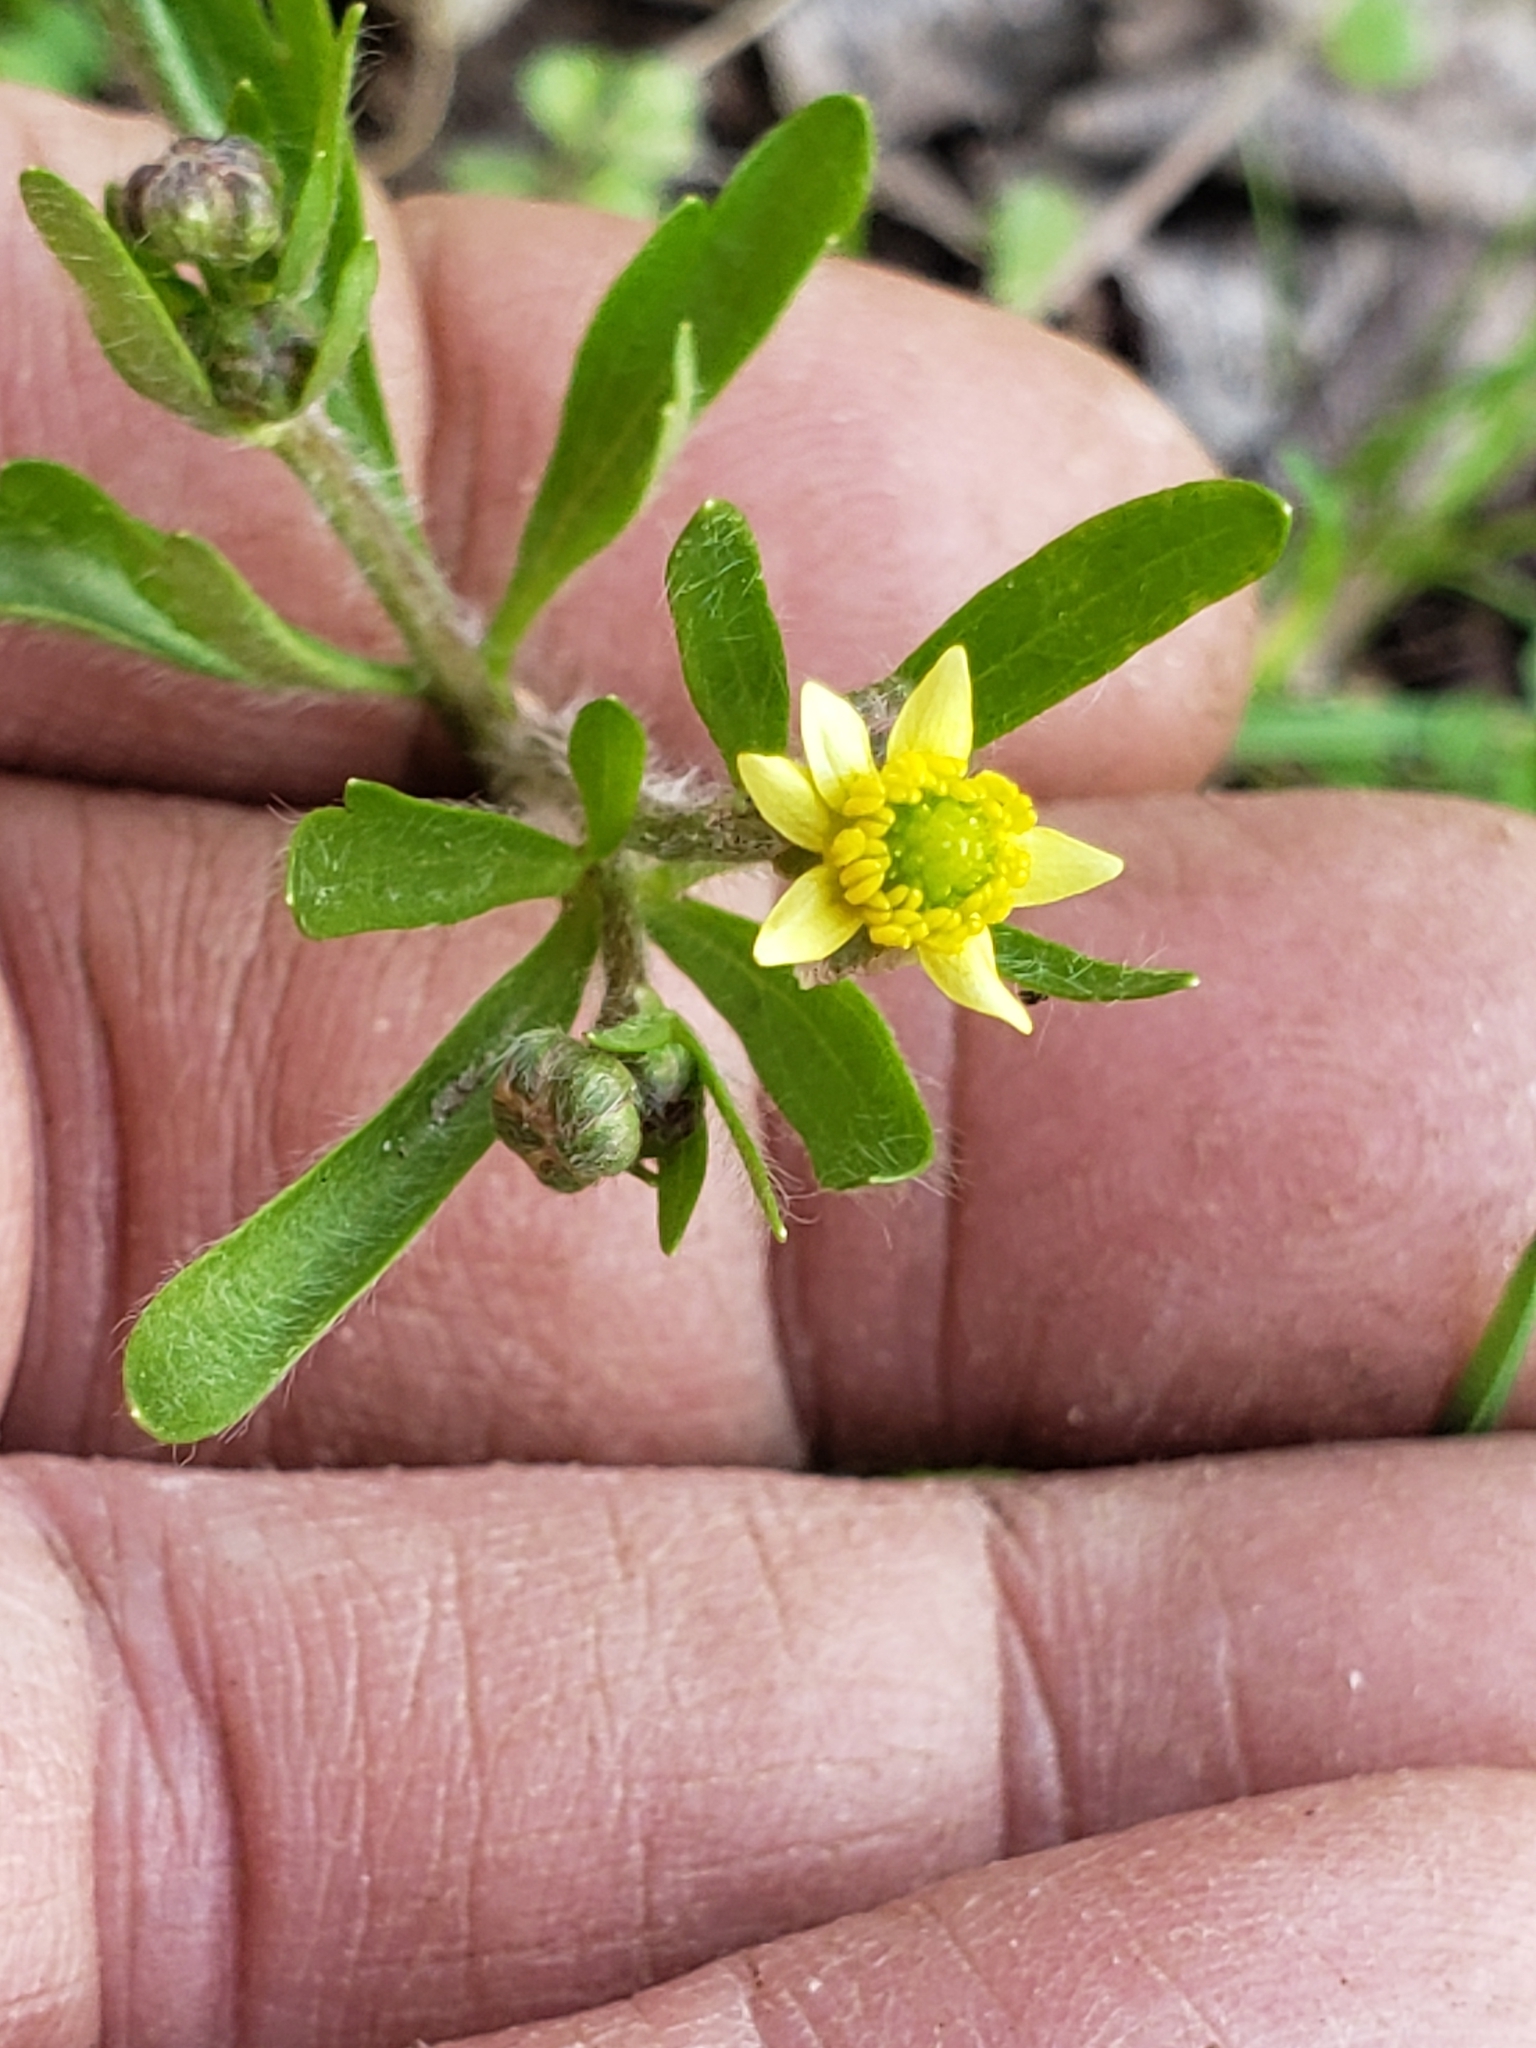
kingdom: Plantae
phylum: Tracheophyta
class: Magnoliopsida
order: Ranunculales
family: Ranunculaceae
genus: Ranunculus
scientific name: Ranunculus abortivus
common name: Early wood buttercup
